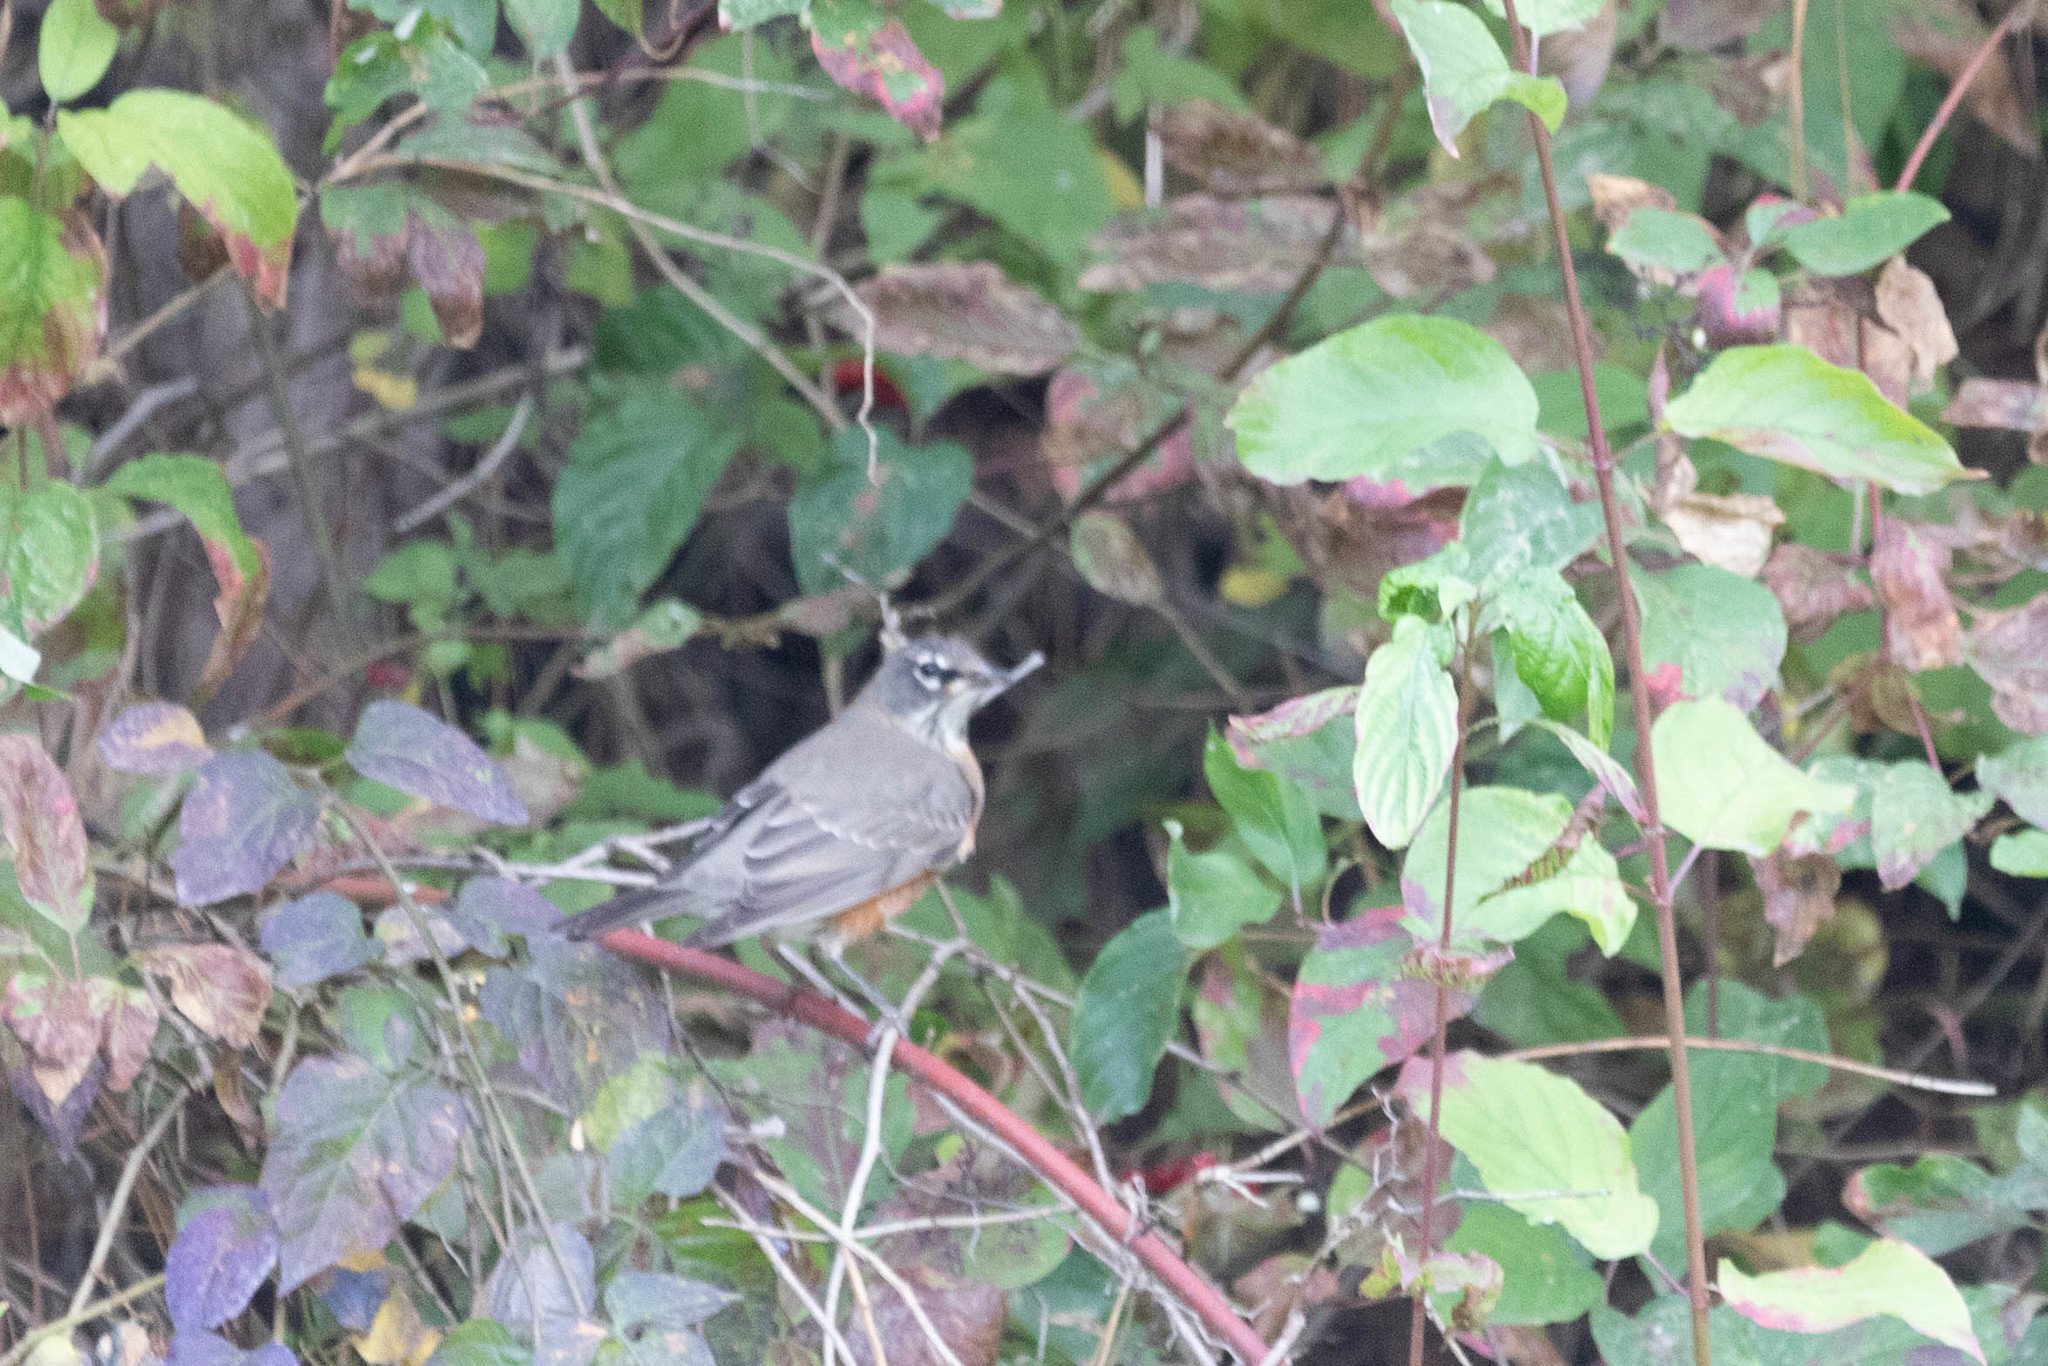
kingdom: Animalia
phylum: Chordata
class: Aves
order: Passeriformes
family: Turdidae
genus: Turdus
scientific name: Turdus migratorius
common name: American robin
